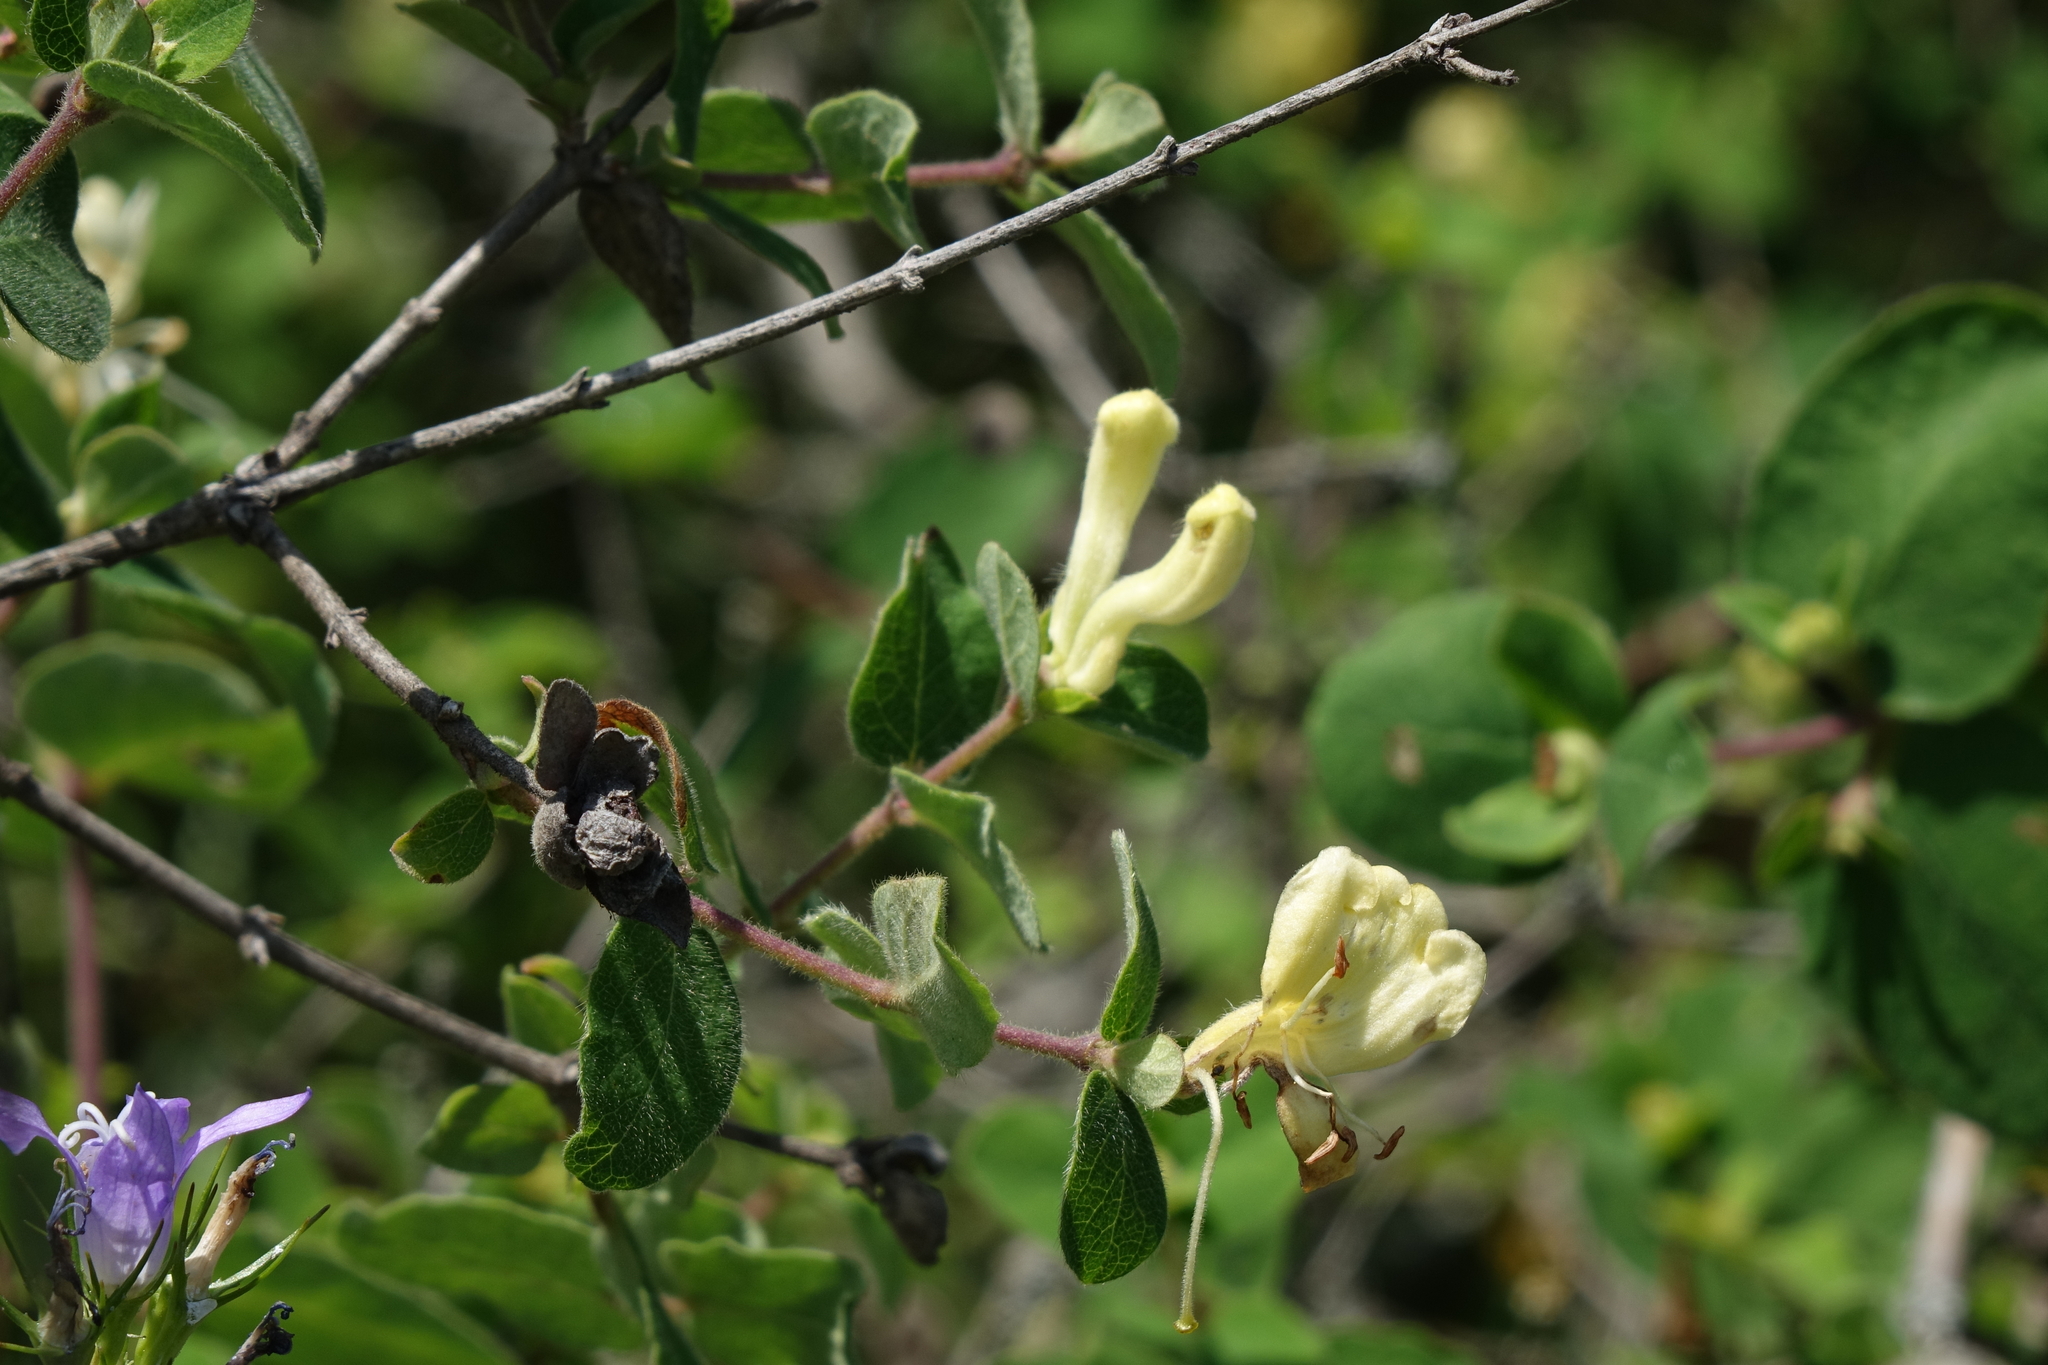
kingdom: Plantae
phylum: Tracheophyta
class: Magnoliopsida
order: Dipsacales
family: Caprifoliaceae
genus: Lonicera
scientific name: Lonicera iberica
